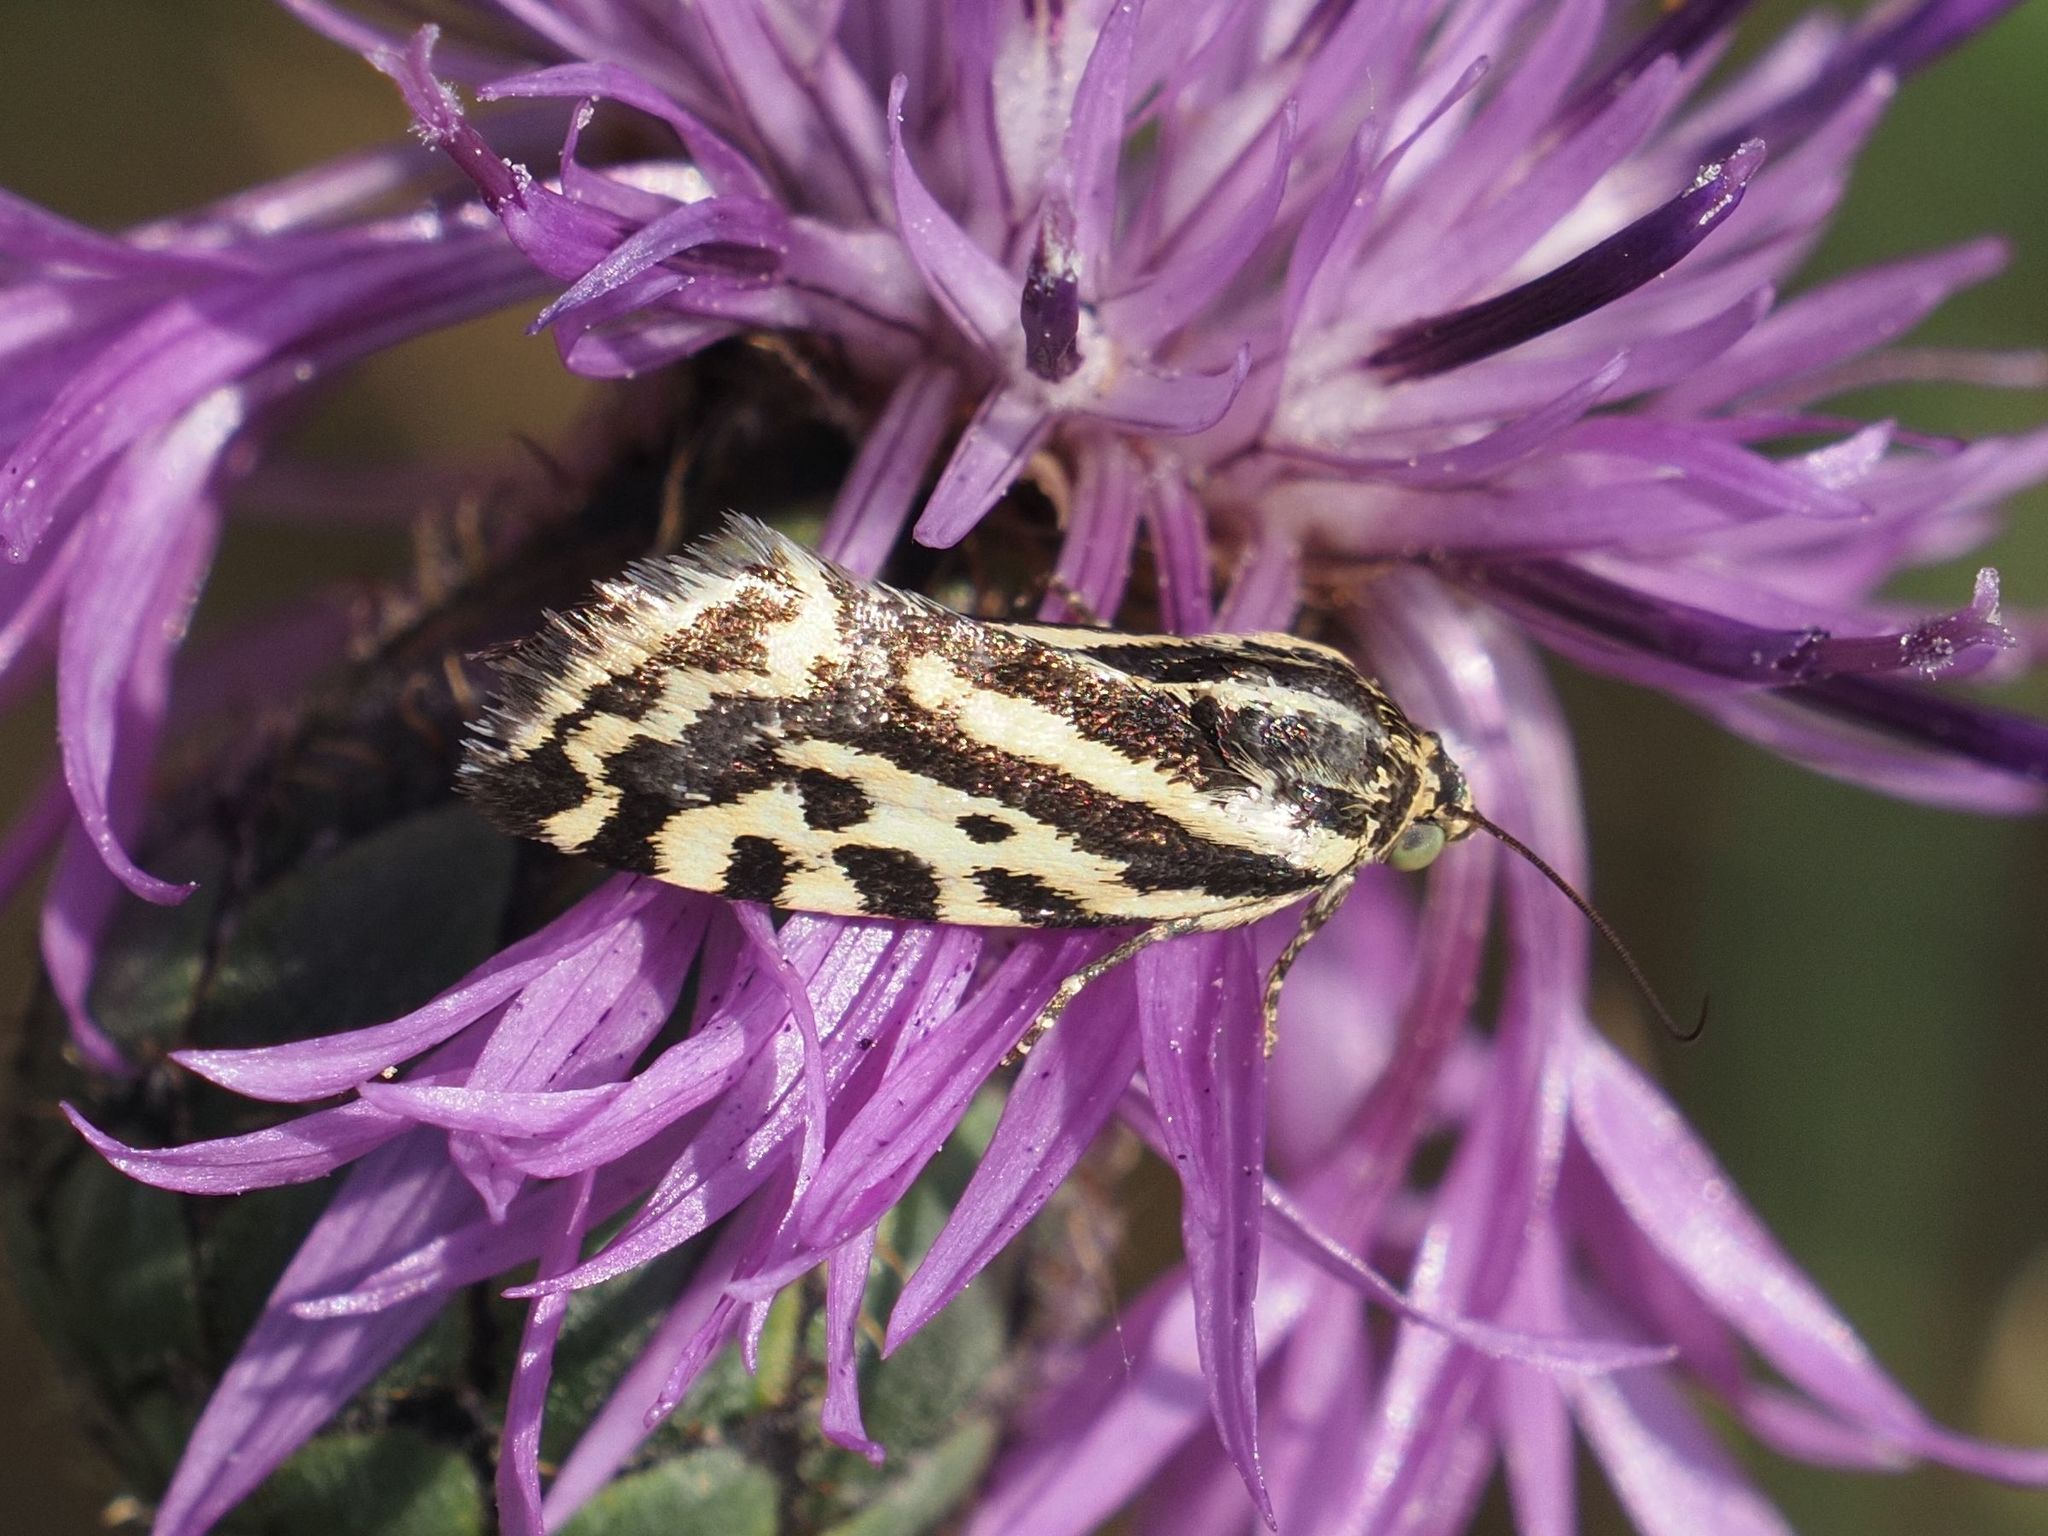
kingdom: Animalia
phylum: Arthropoda
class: Insecta
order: Lepidoptera
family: Noctuidae
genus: Acontia
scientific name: Acontia trabealis
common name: Spotted sulphur
